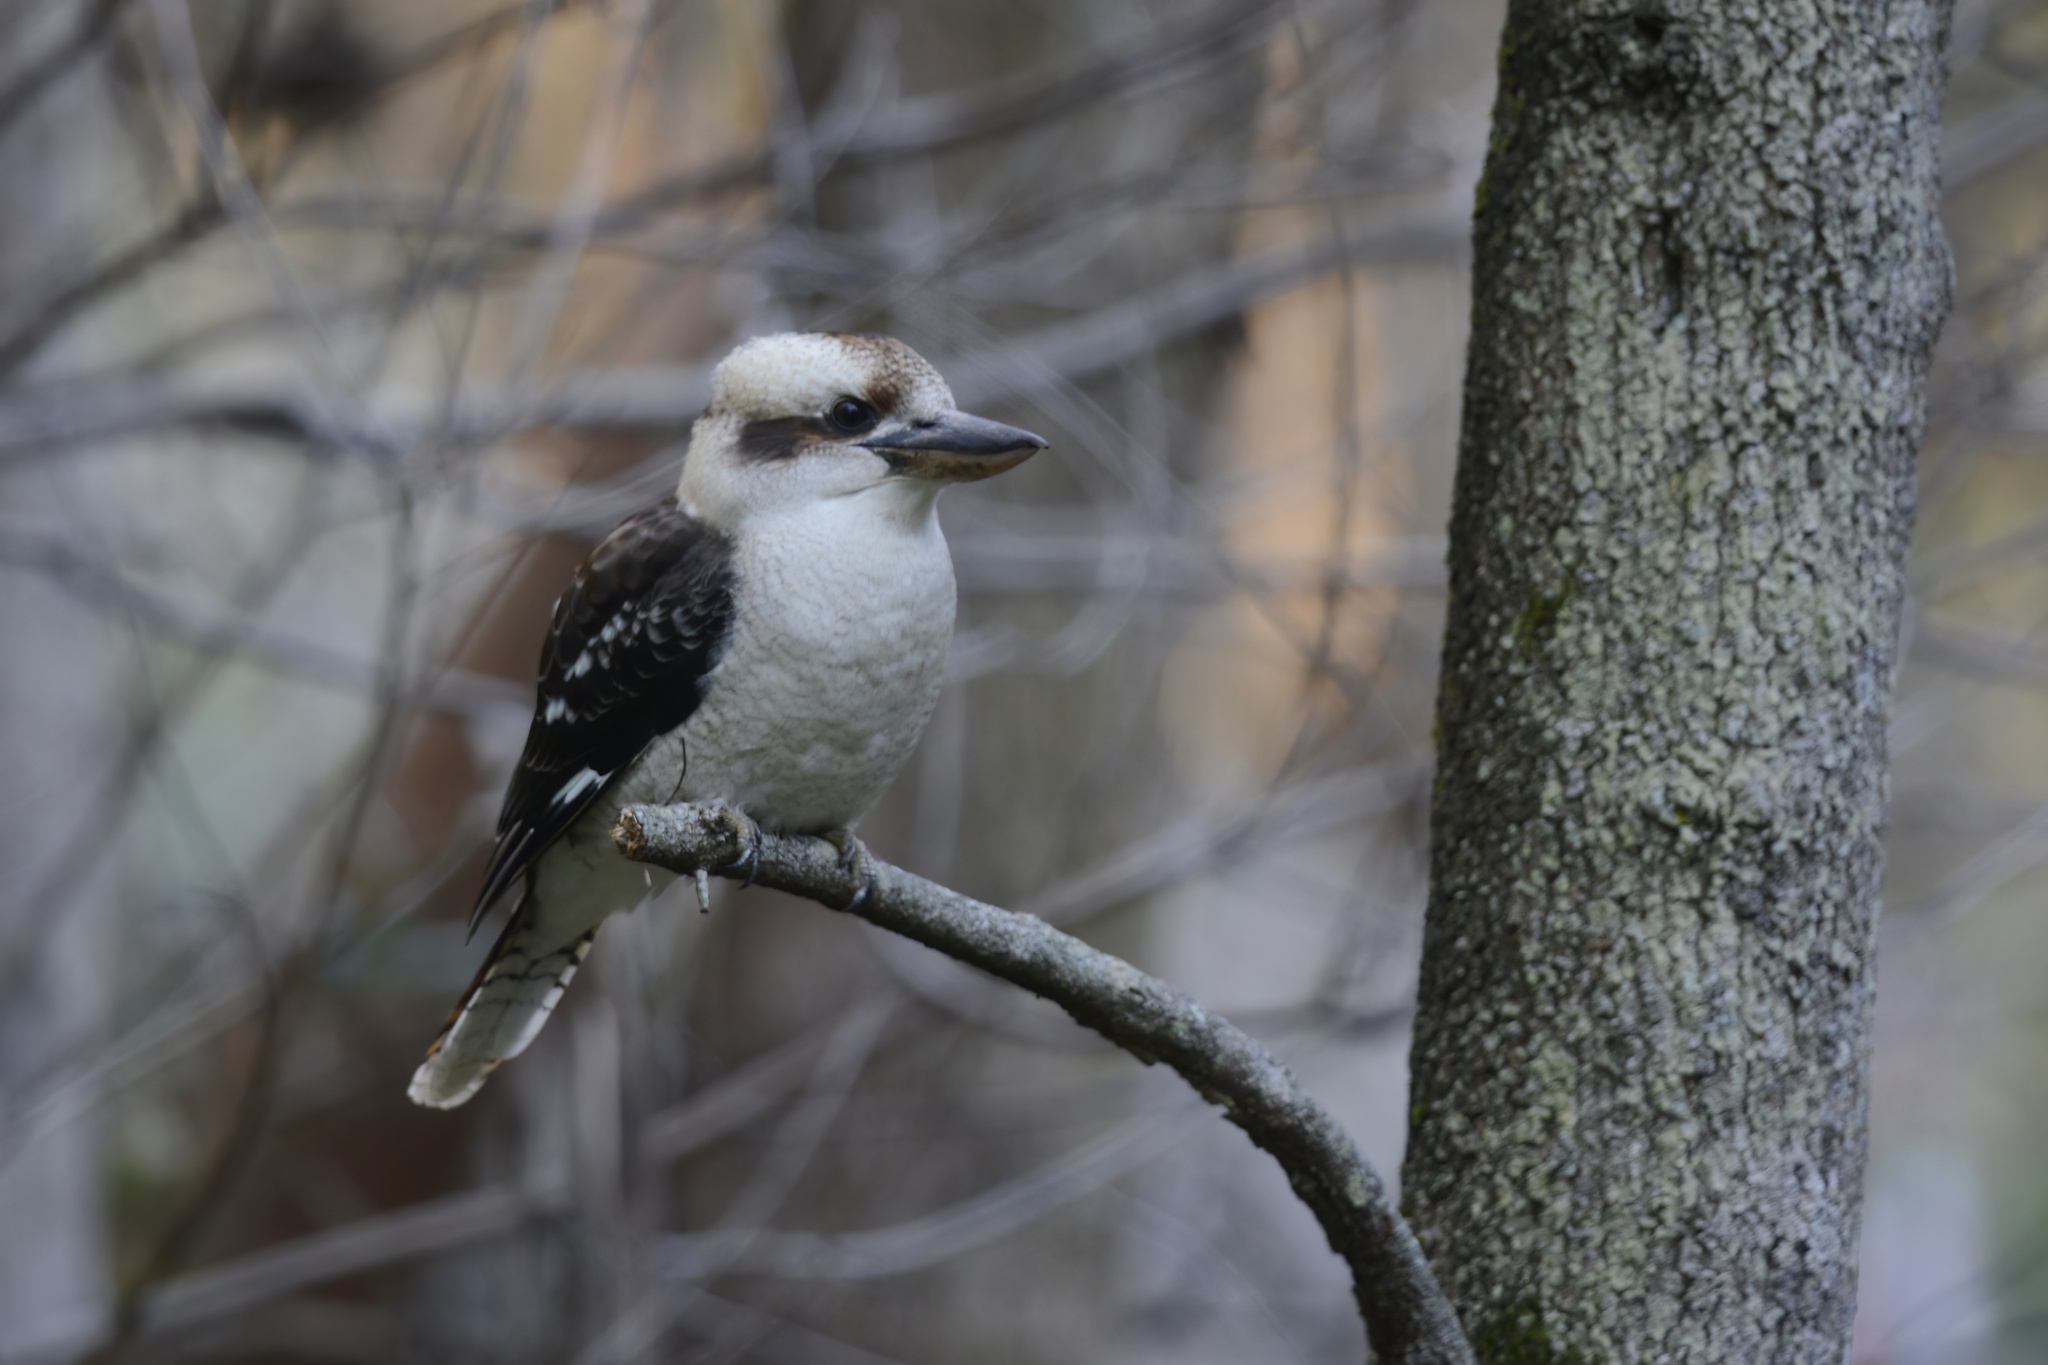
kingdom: Animalia
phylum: Chordata
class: Aves
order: Coraciiformes
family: Alcedinidae
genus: Dacelo
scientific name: Dacelo novaeguineae
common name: Laughing kookaburra
